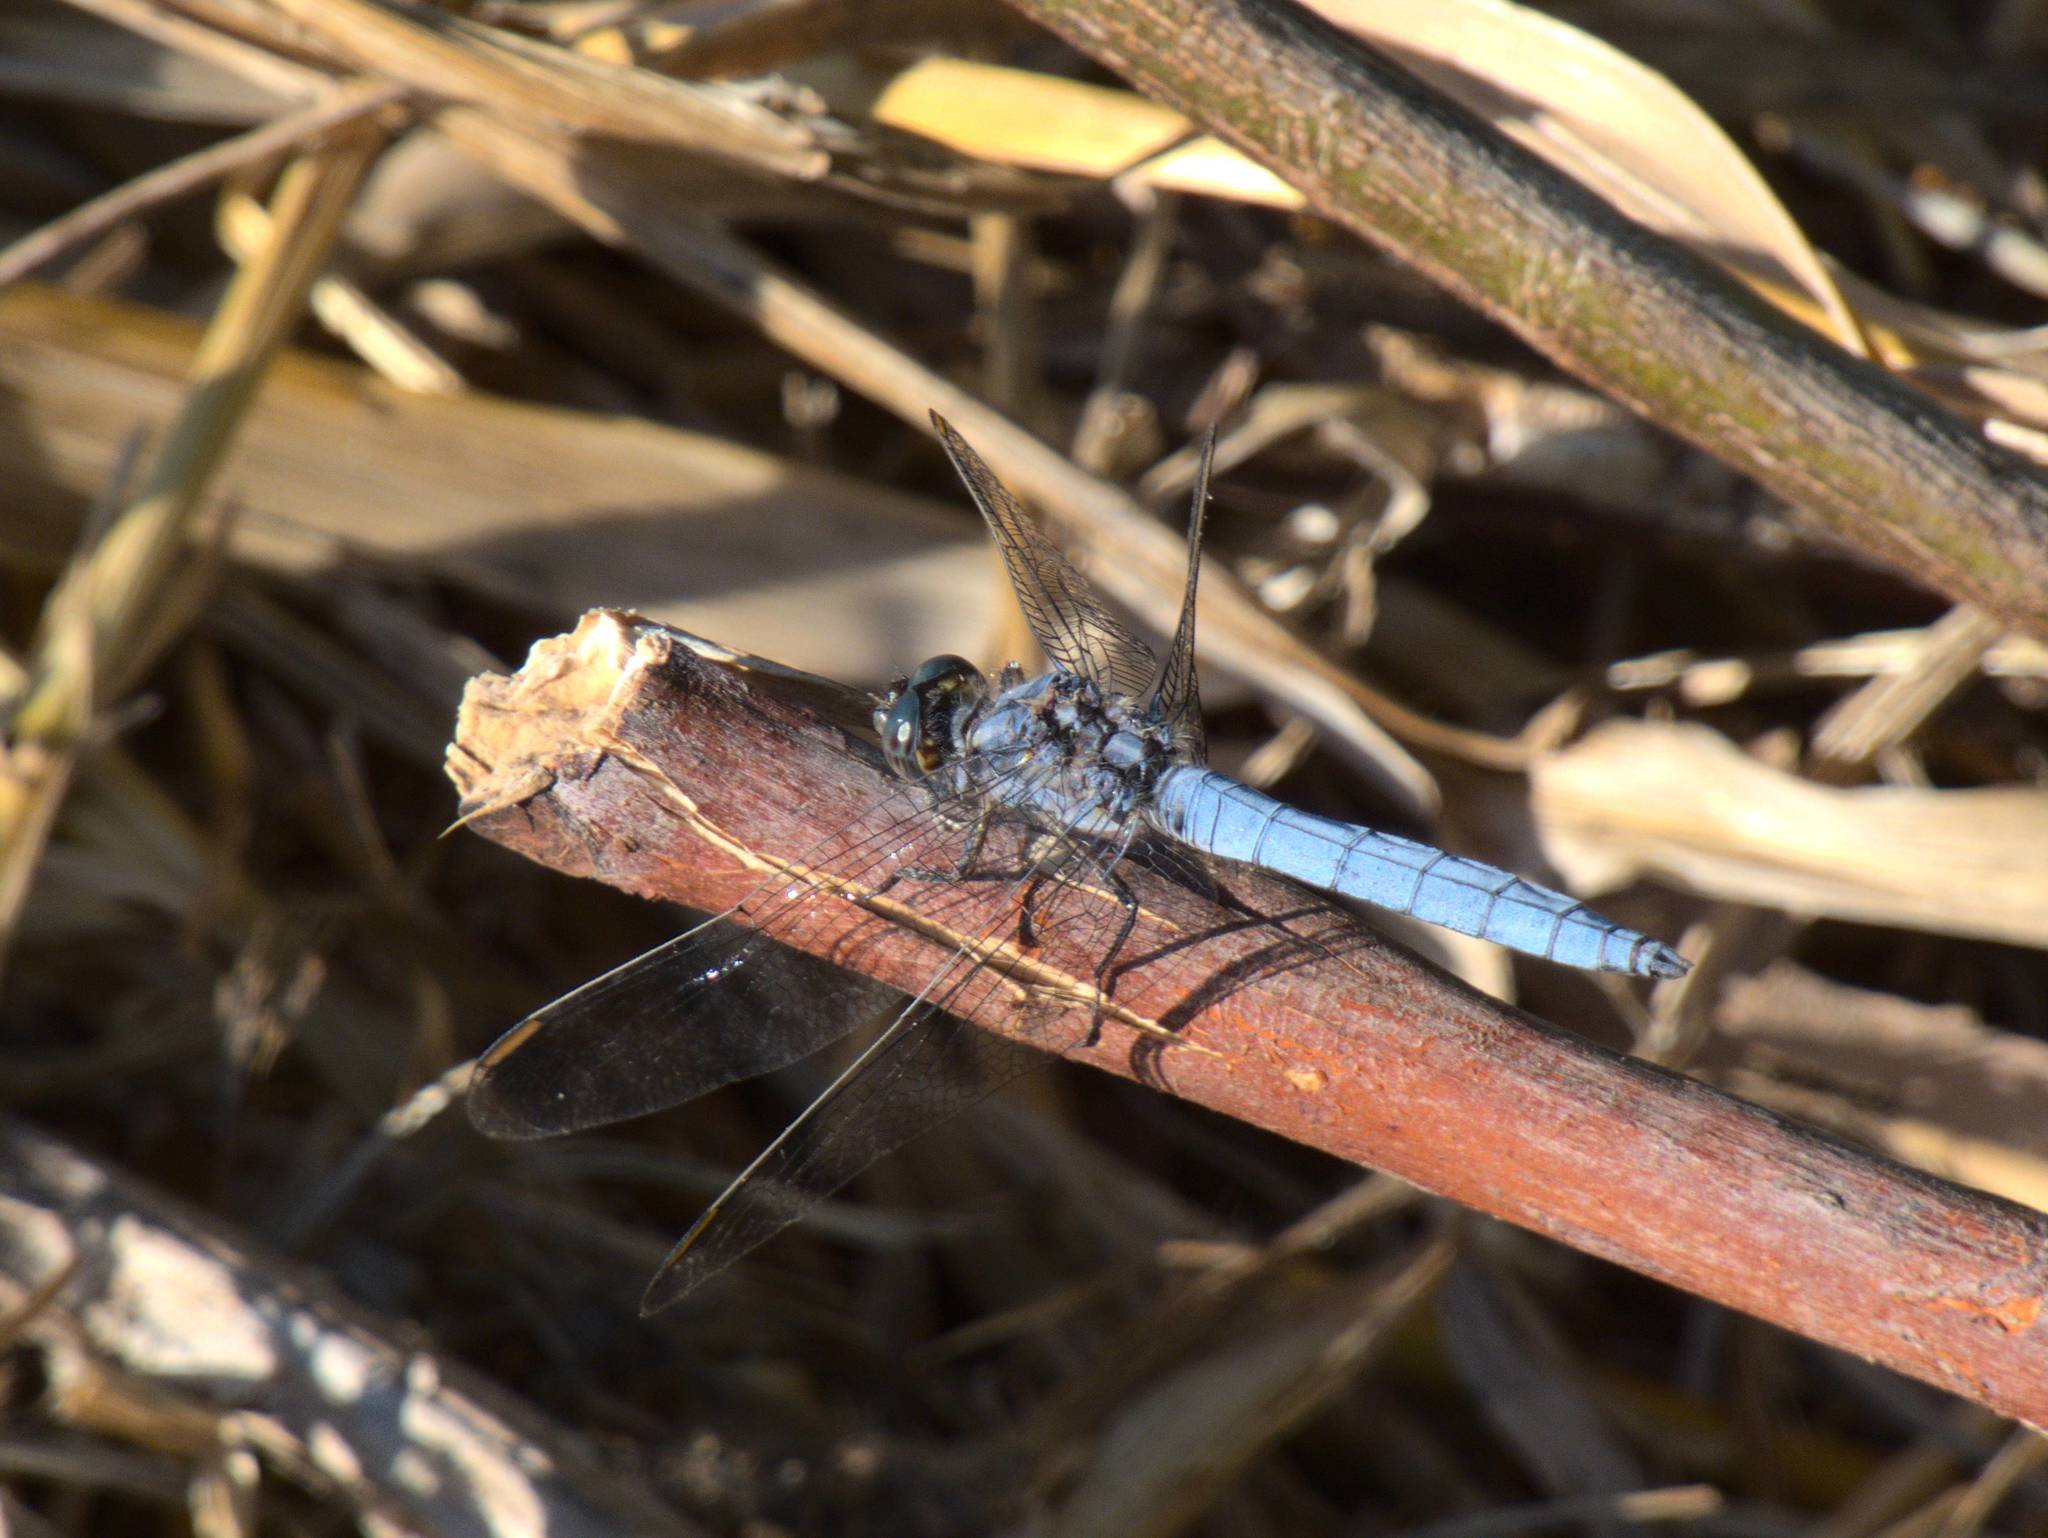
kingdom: Animalia
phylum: Arthropoda
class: Insecta
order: Odonata
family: Libellulidae
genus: Orthetrum
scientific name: Orthetrum coerulescens
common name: Keeled skimmer
